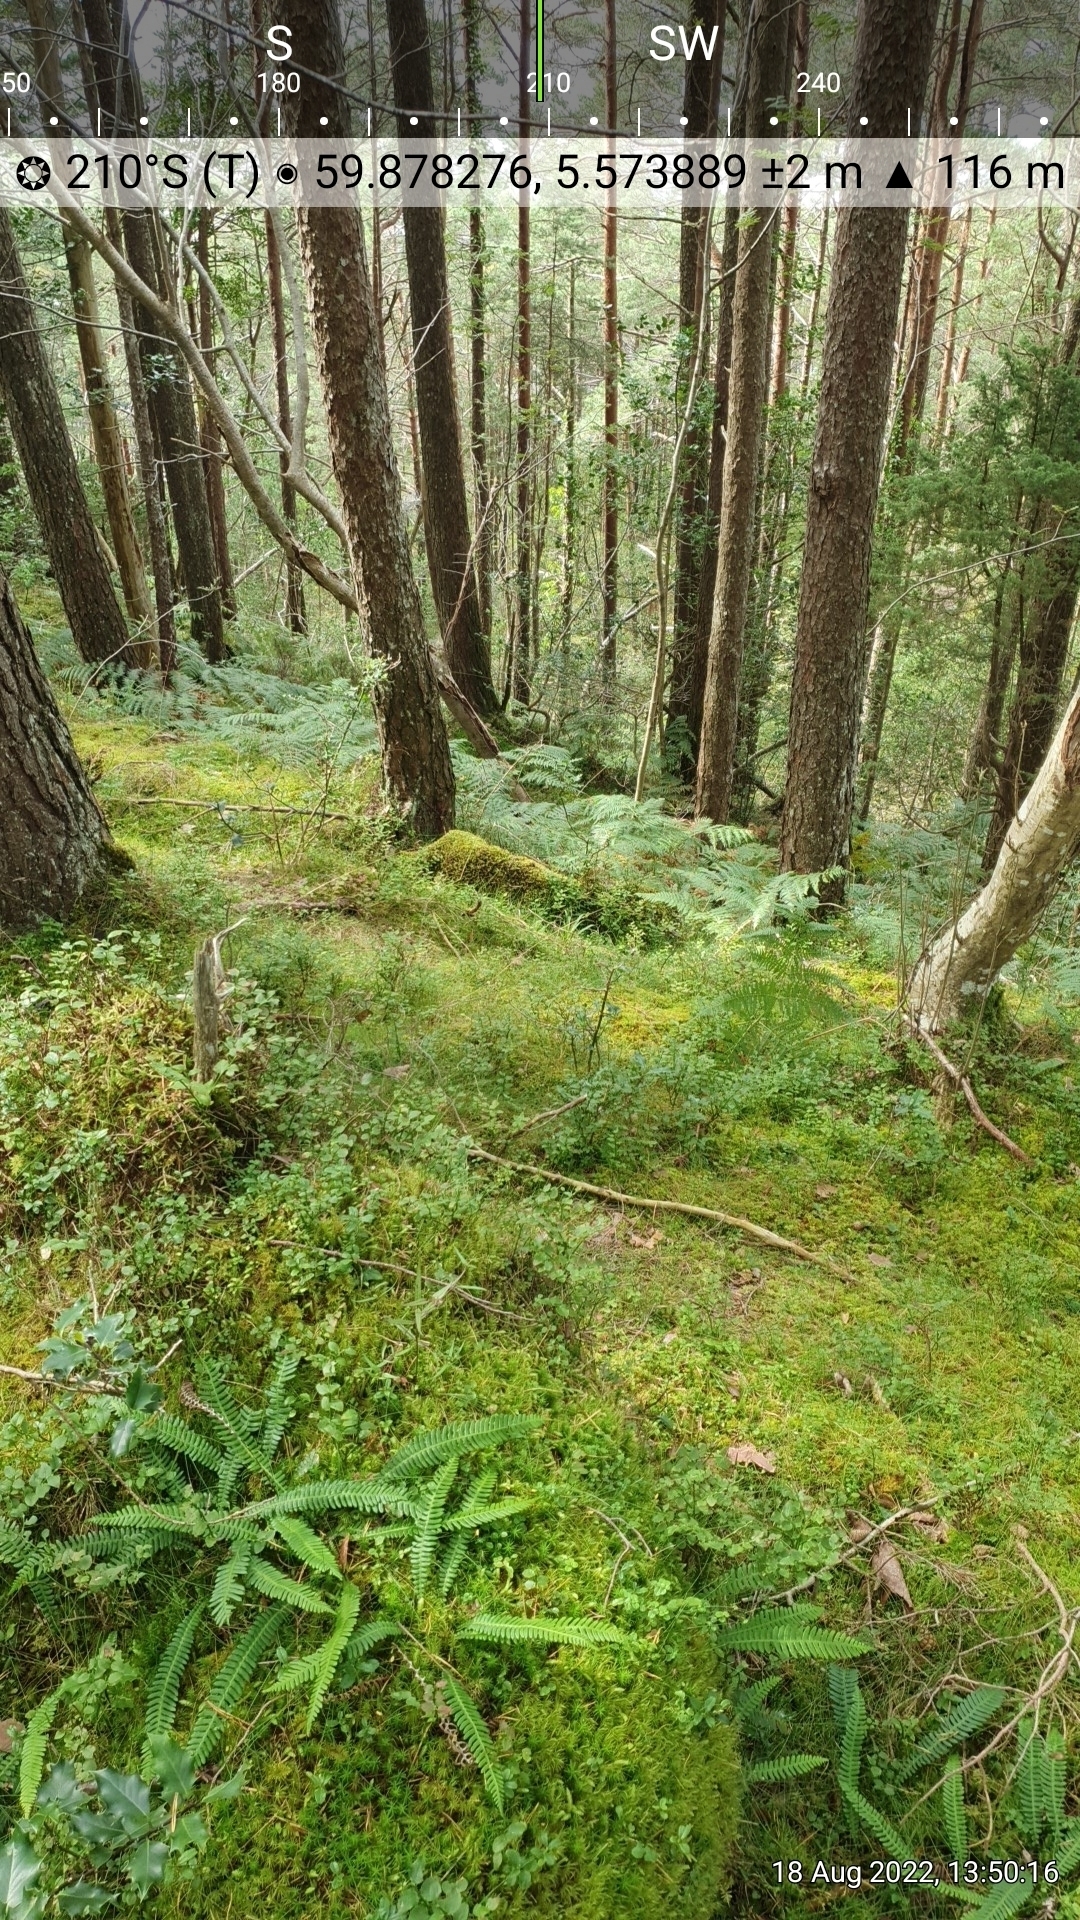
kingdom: Plantae
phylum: Tracheophyta
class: Polypodiopsida
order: Polypodiales
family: Blechnaceae
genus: Struthiopteris
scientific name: Struthiopteris spicant
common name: Deer fern
